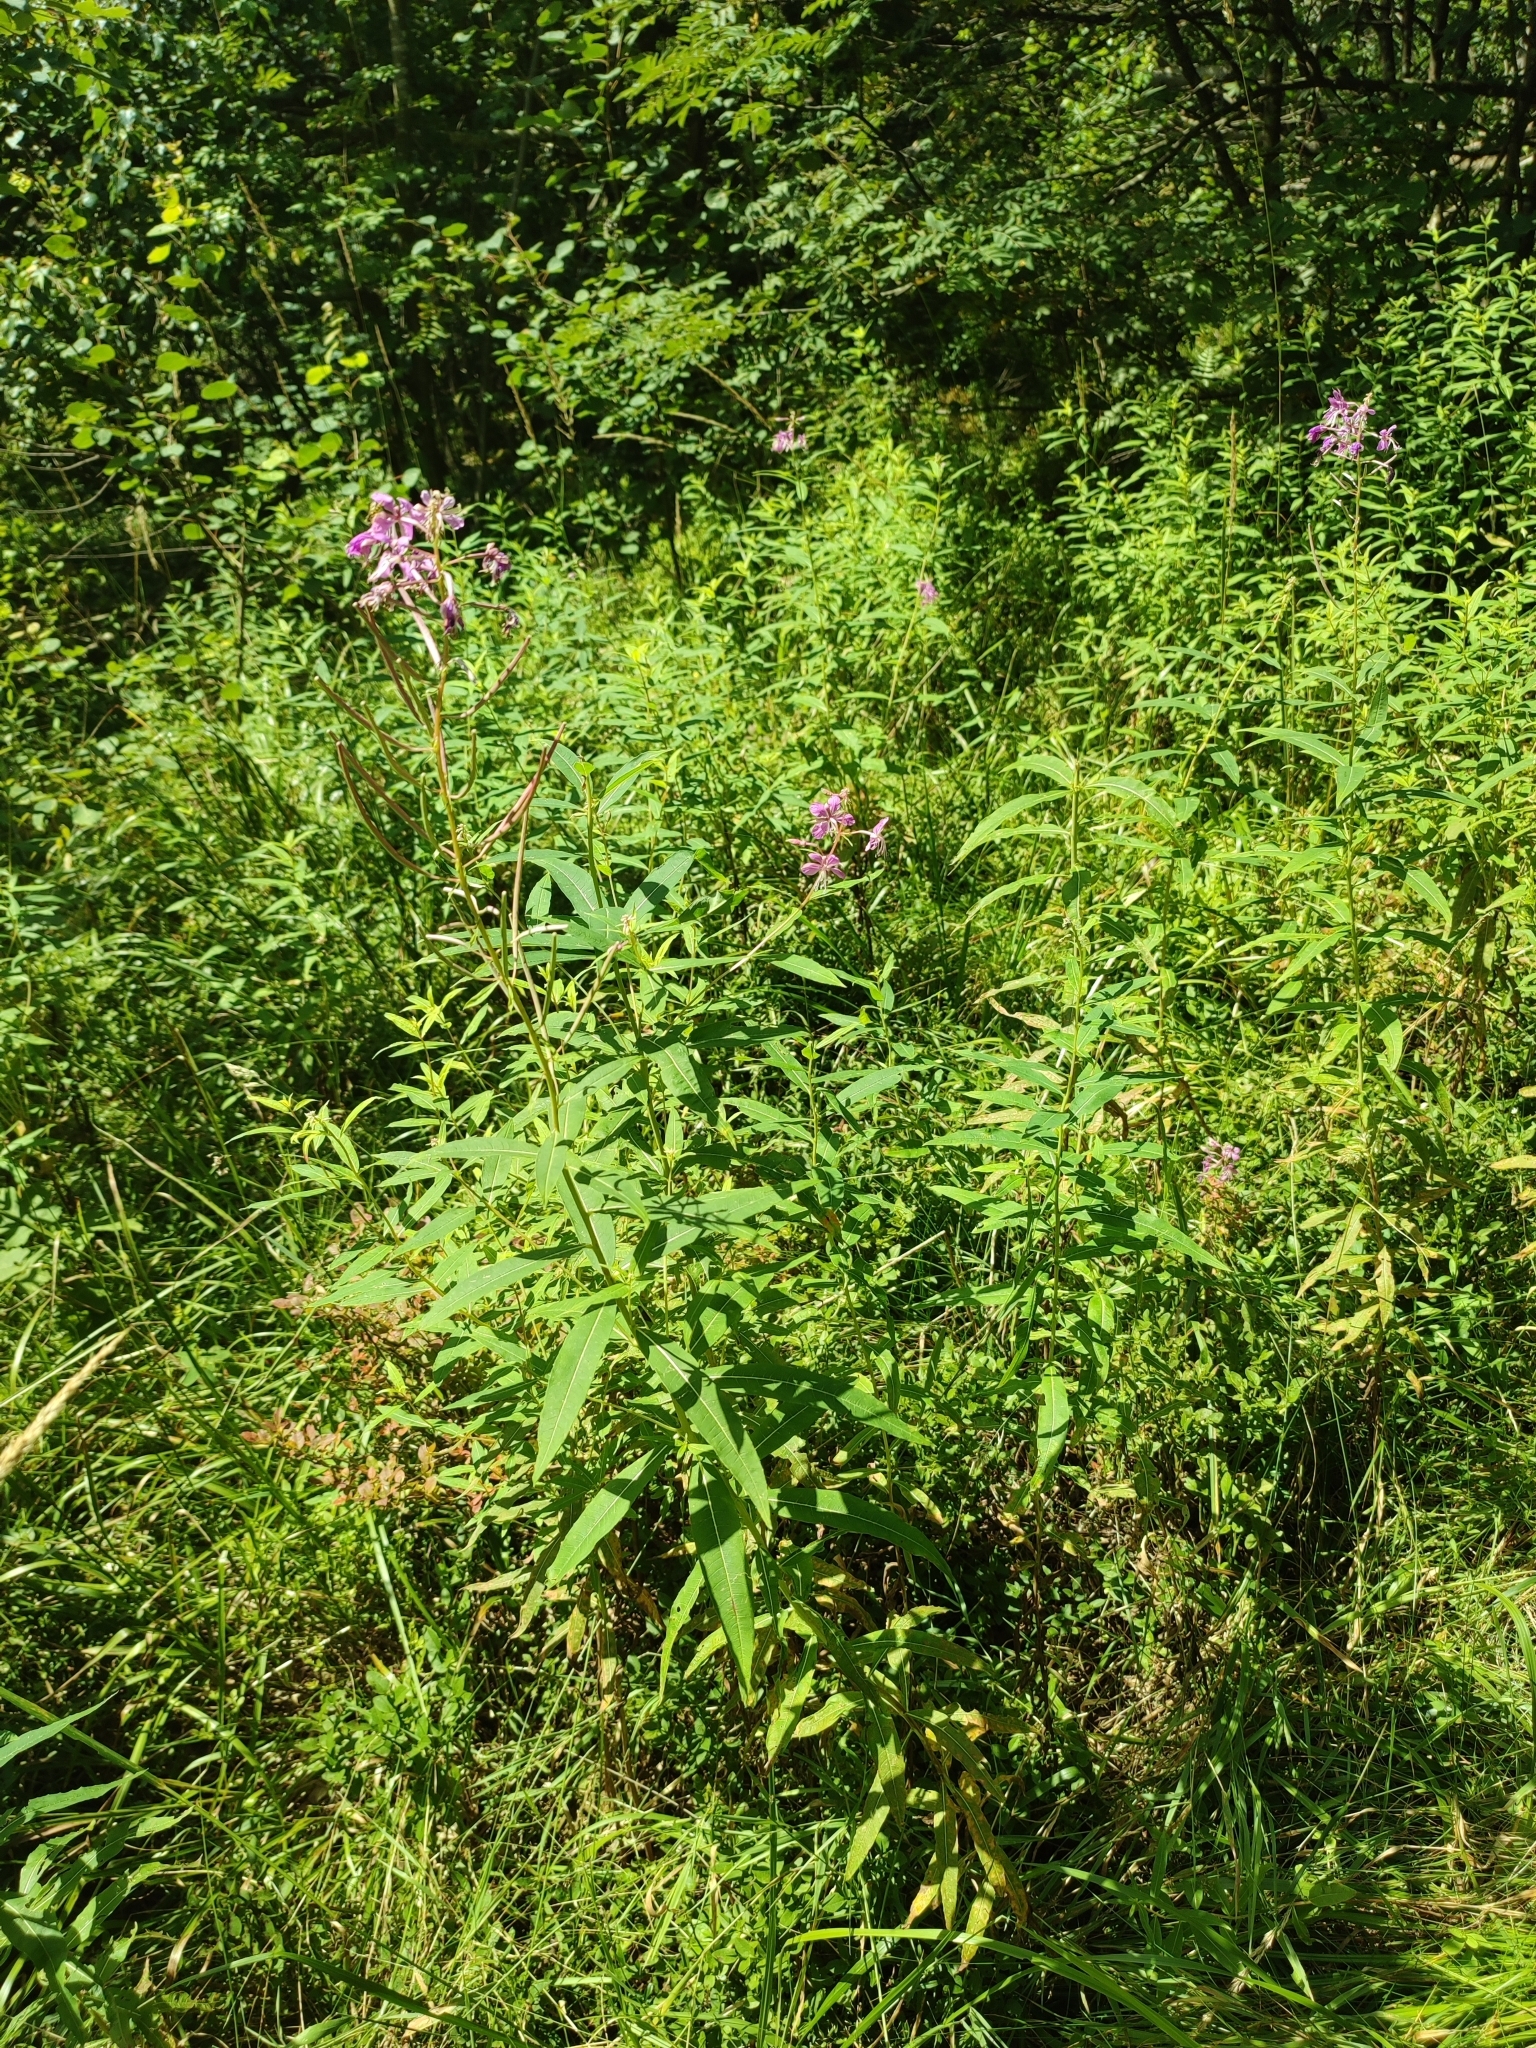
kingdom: Plantae
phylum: Tracheophyta
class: Magnoliopsida
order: Myrtales
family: Onagraceae
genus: Chamaenerion
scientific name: Chamaenerion angustifolium
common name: Fireweed
